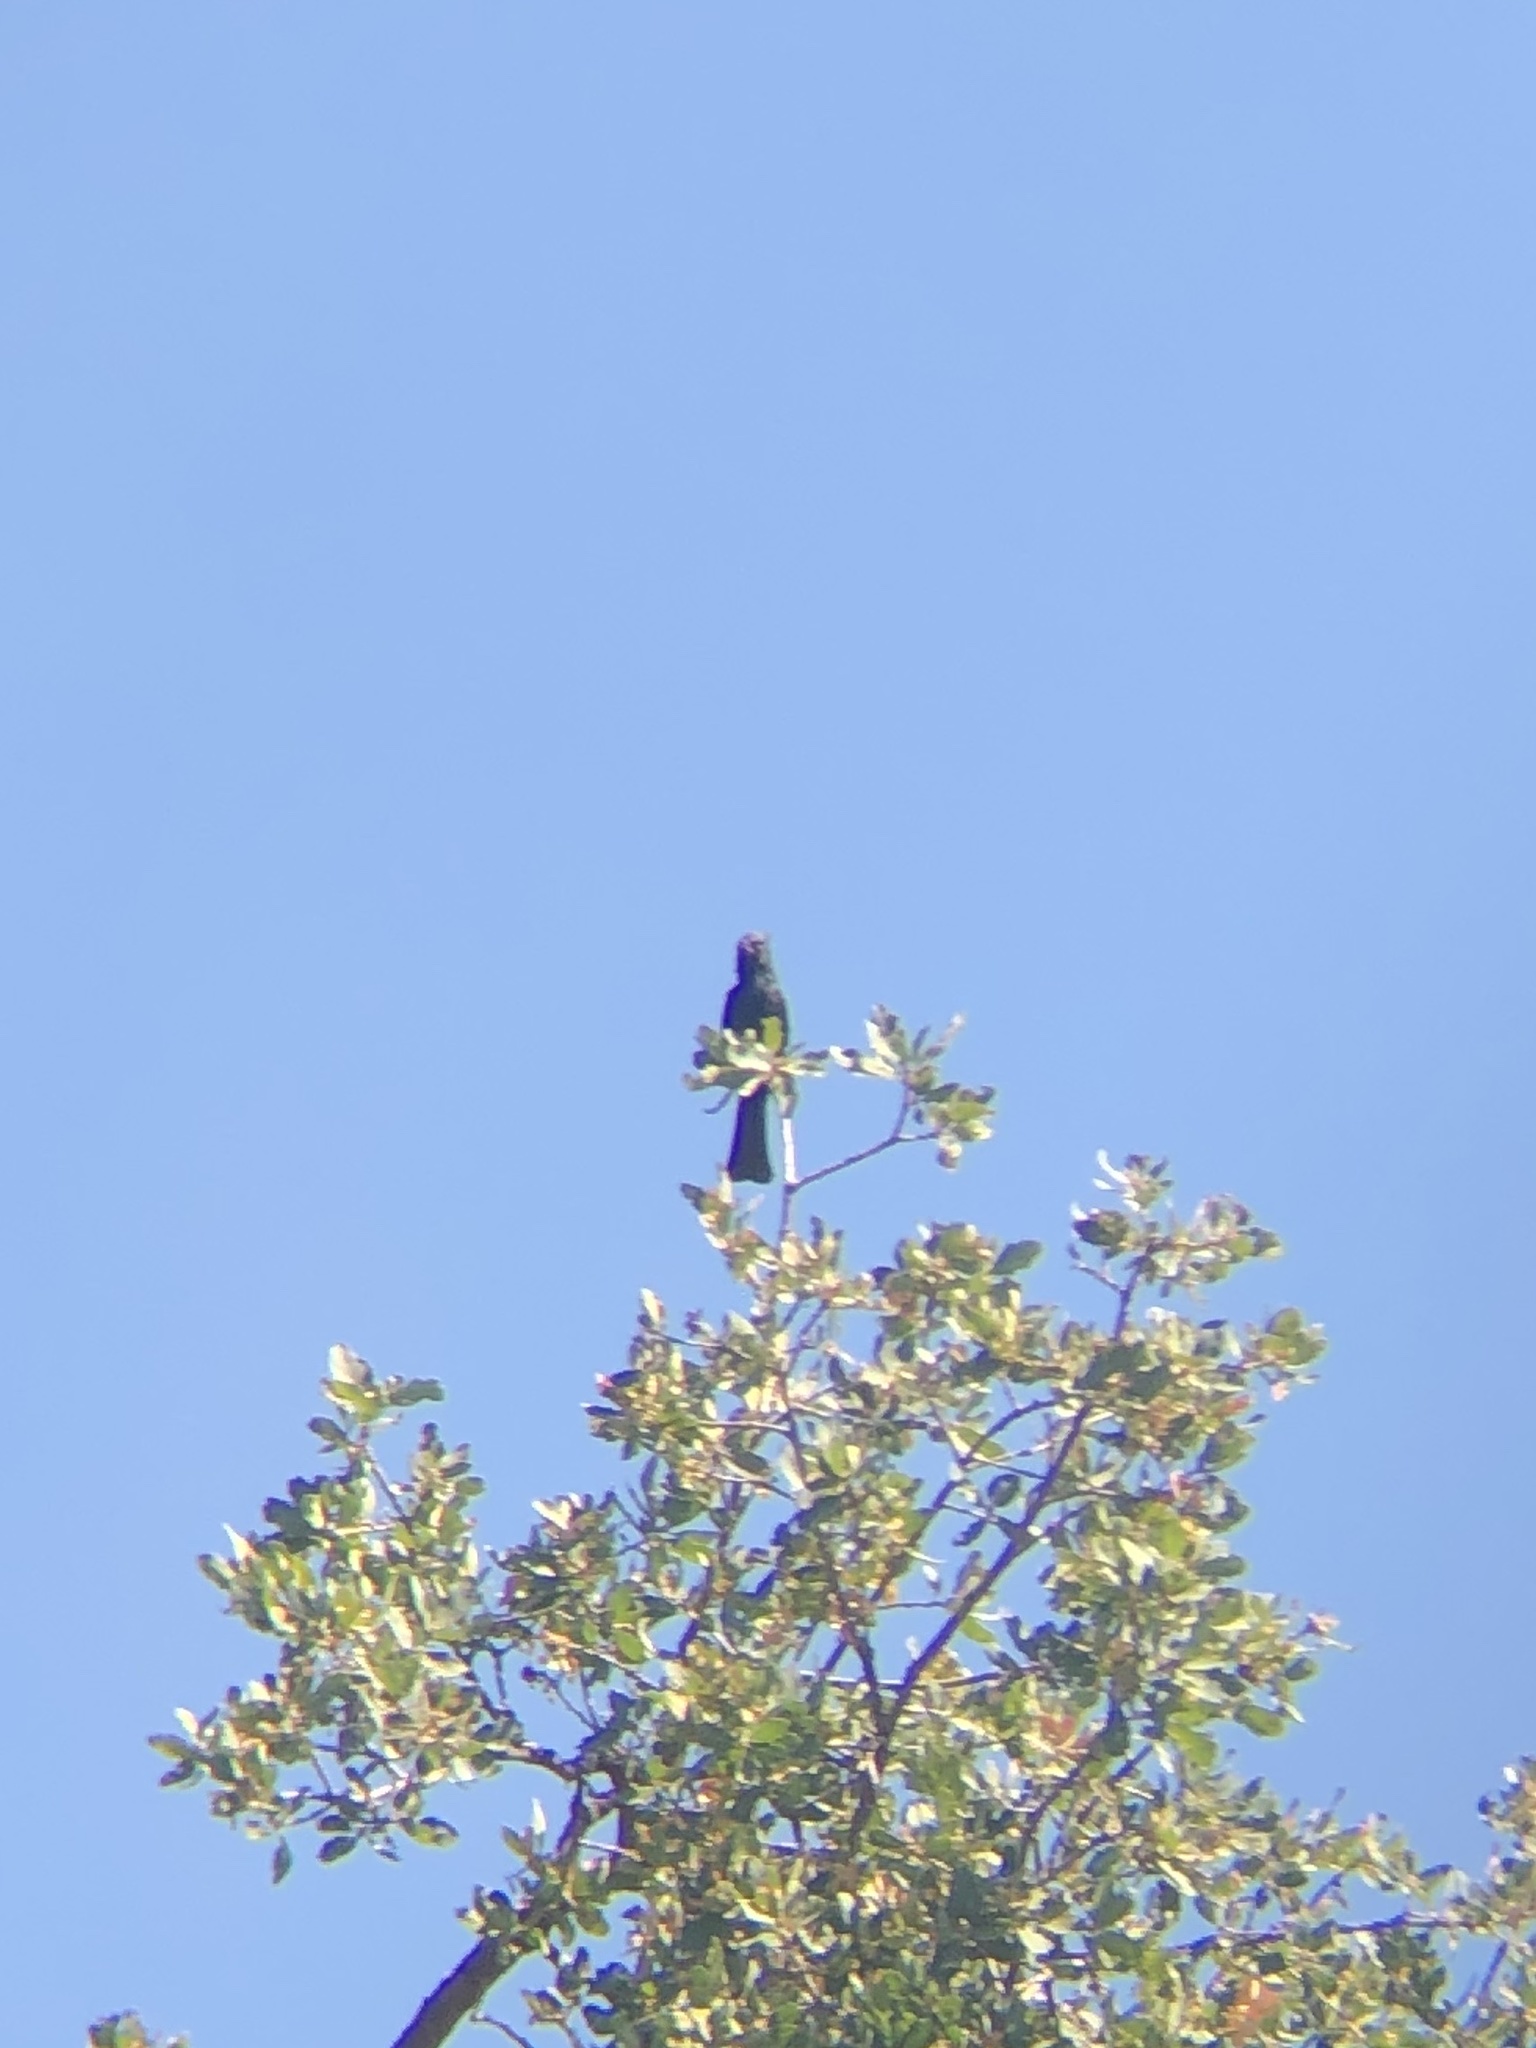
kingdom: Animalia
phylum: Chordata
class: Aves
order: Passeriformes
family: Ptilogonatidae
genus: Phainopepla
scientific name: Phainopepla nitens
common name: Phainopepla
